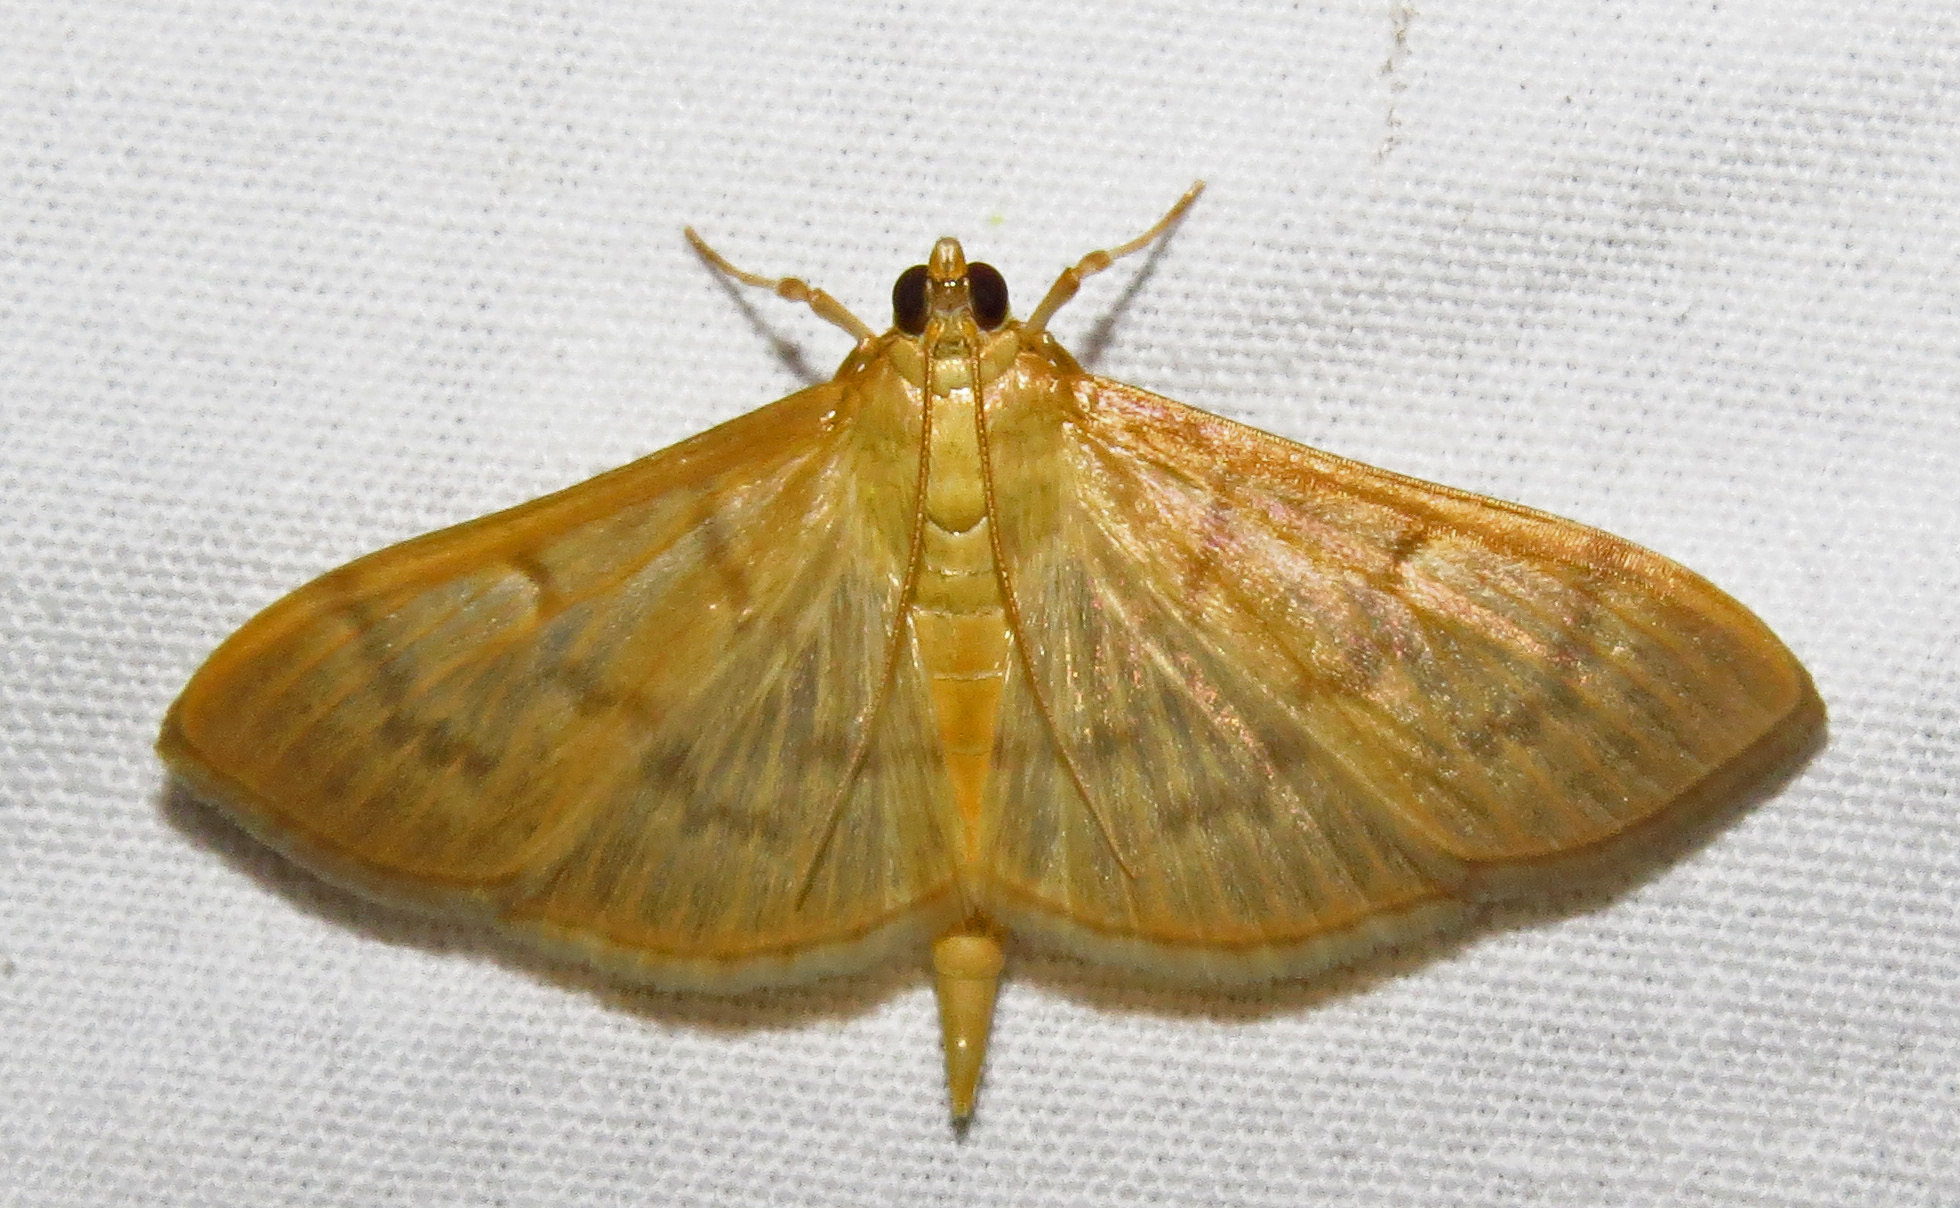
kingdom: Animalia
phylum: Arthropoda
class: Insecta
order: Lepidoptera
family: Crambidae
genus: Pleuroptya
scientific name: Pleuroptya silicalis
